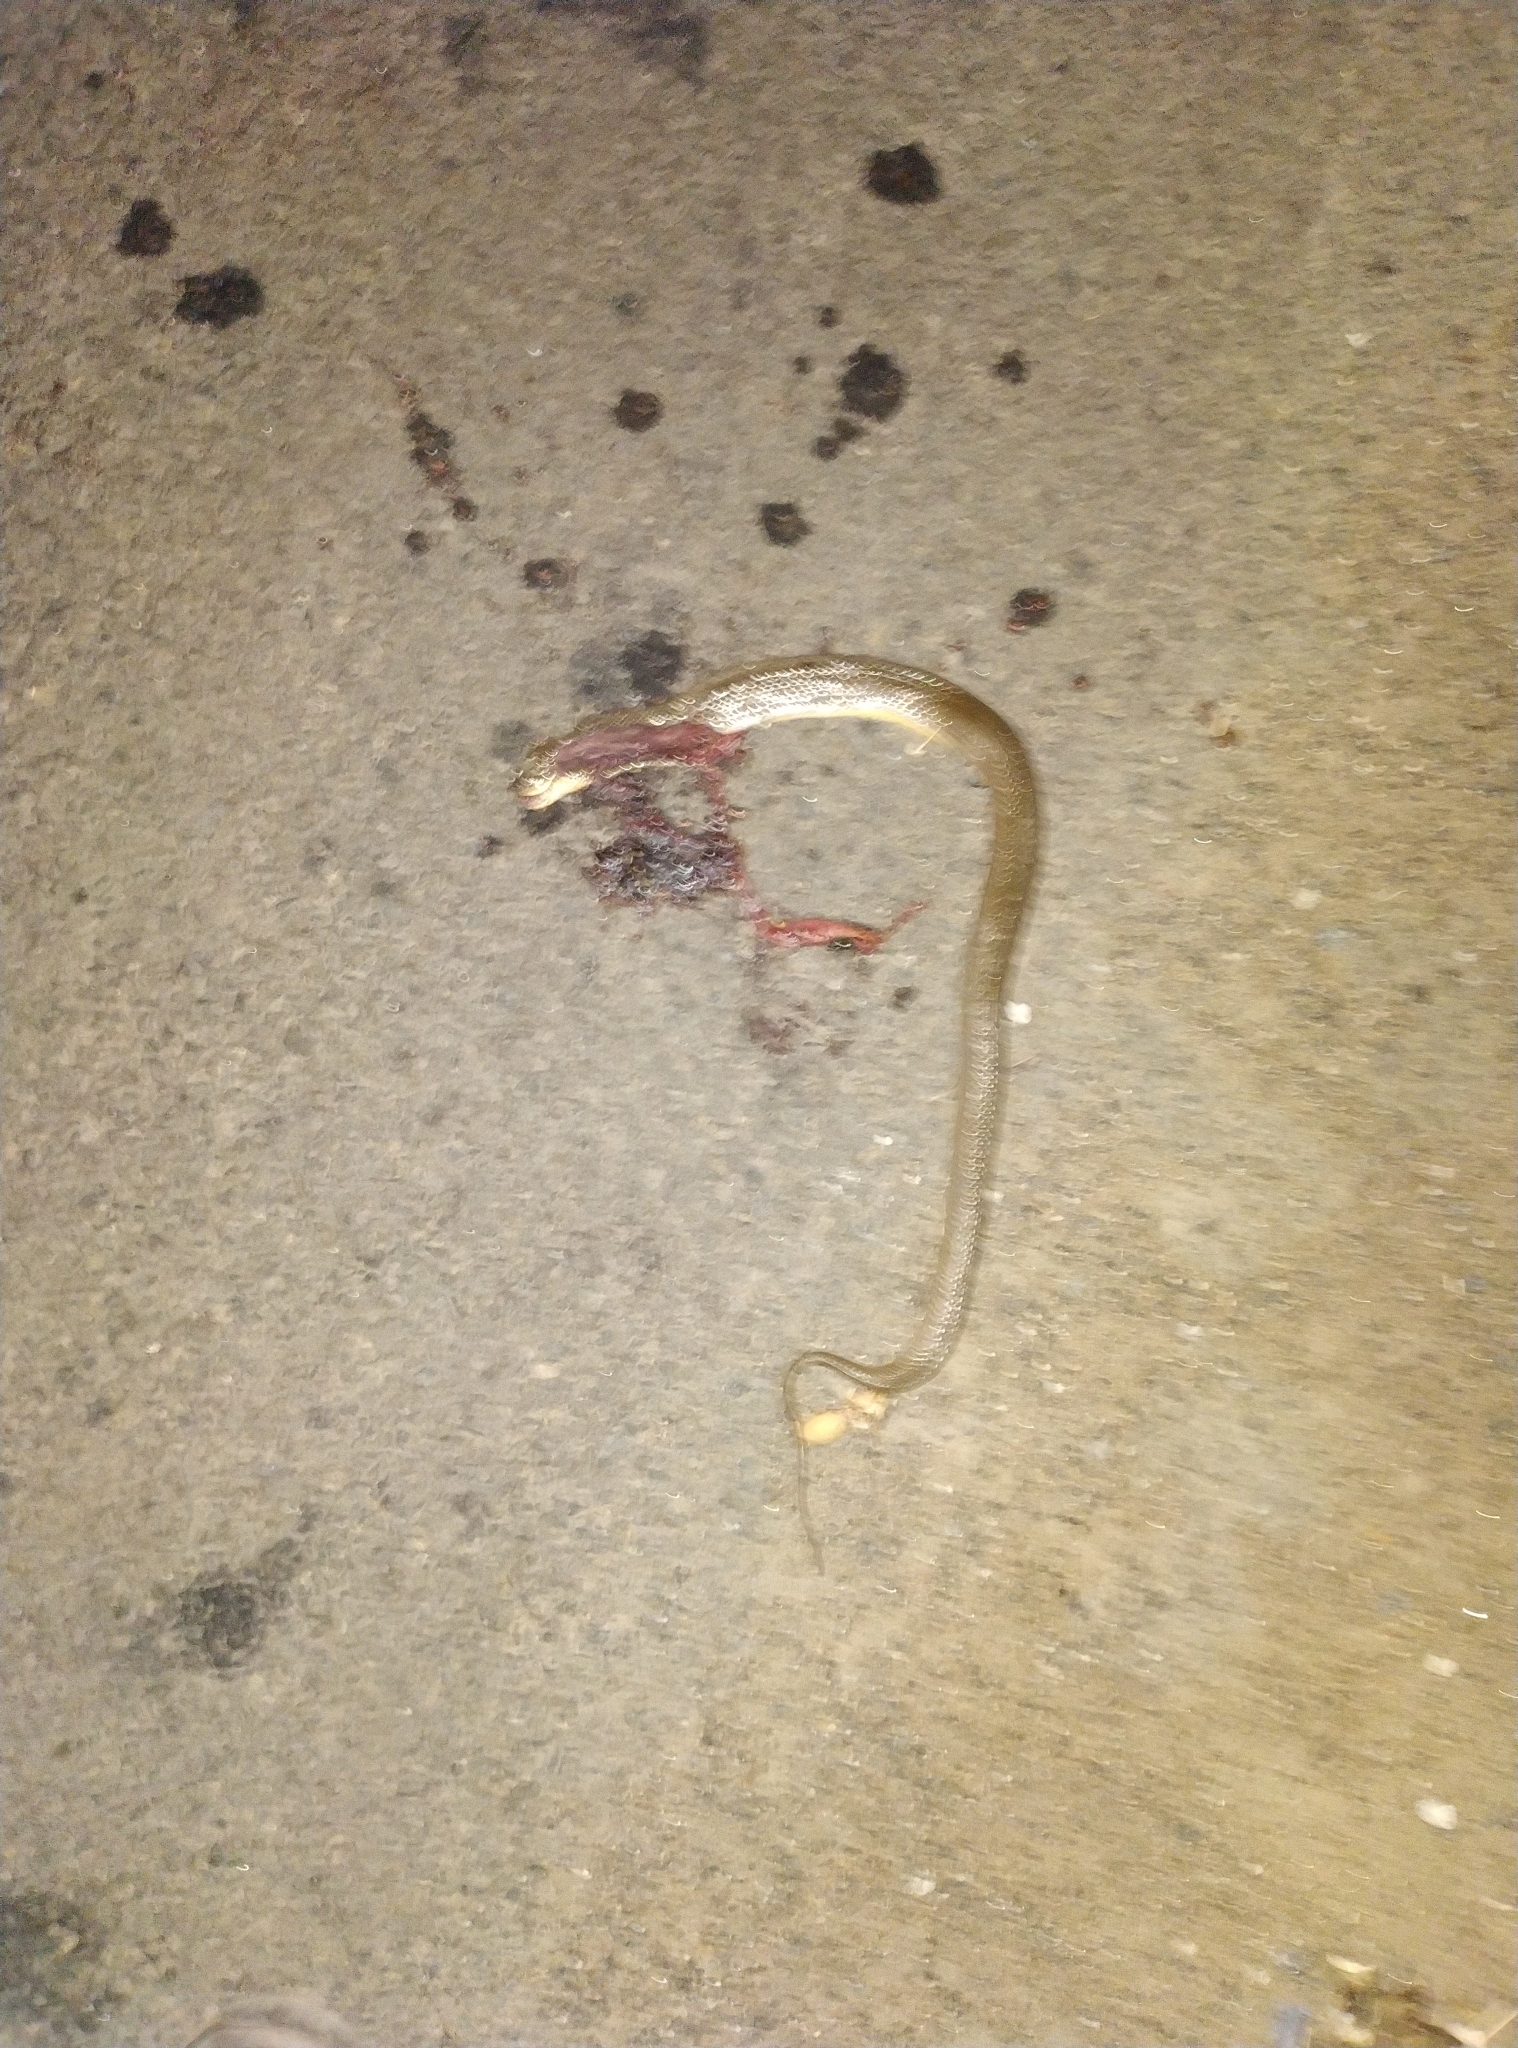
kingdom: Animalia
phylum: Chordata
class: Squamata
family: Colubridae
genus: Atretium
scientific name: Atretium schistosum
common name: Olive keelback wart snake
